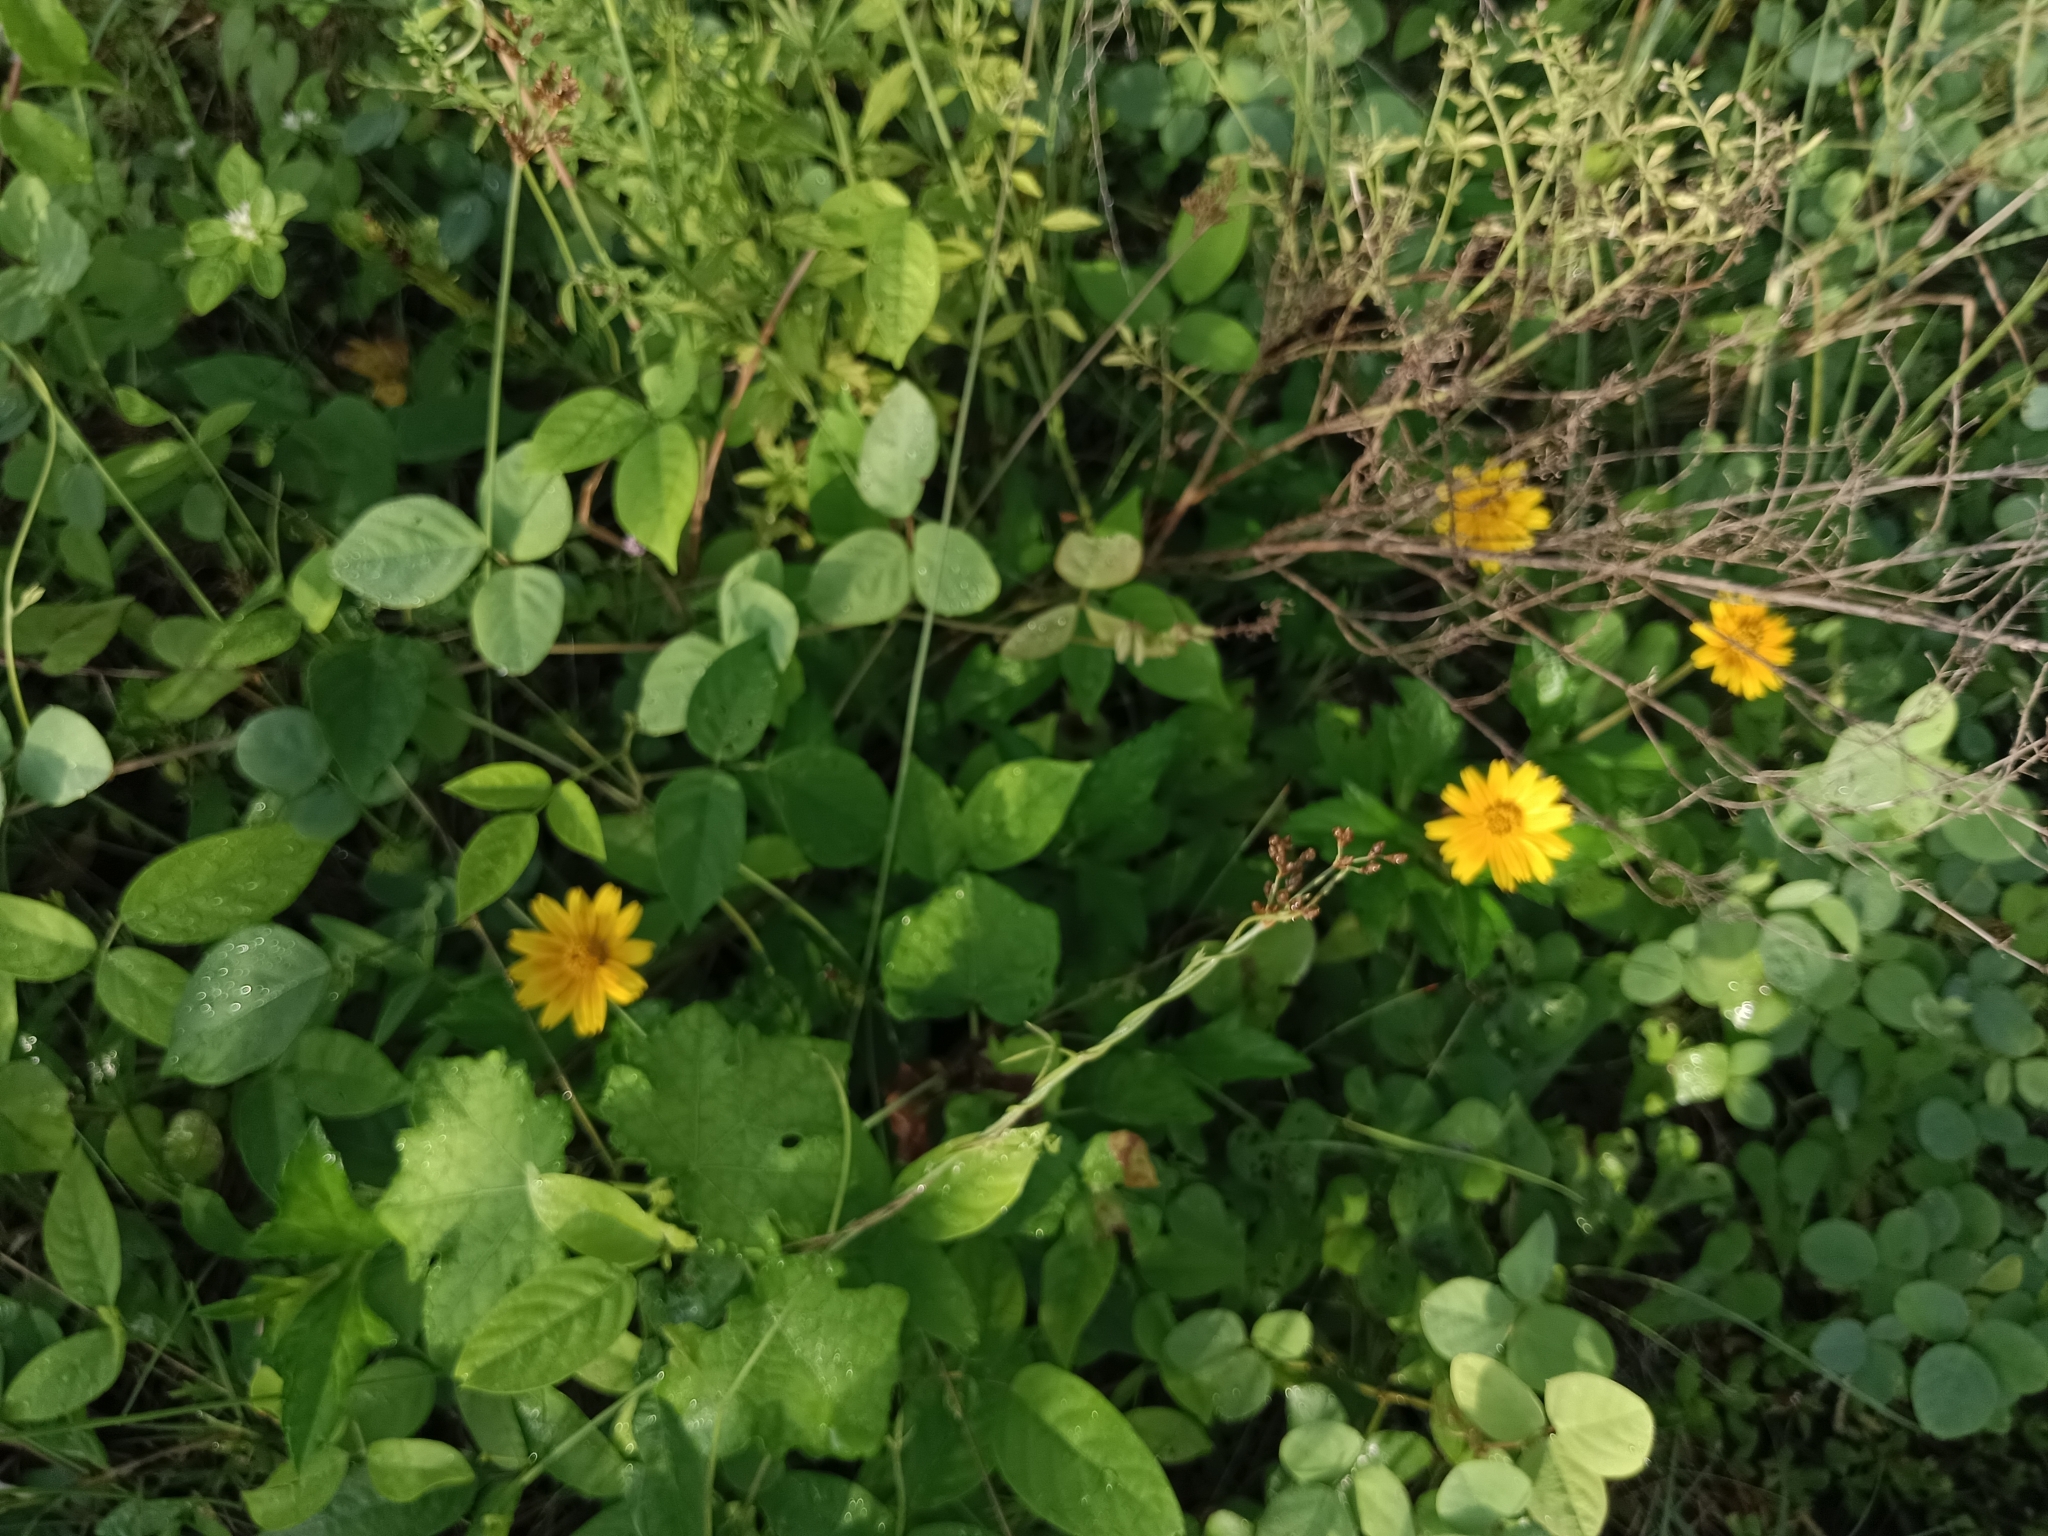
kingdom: Plantae
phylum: Tracheophyta
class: Magnoliopsida
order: Asterales
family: Asteraceae
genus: Sphagneticola
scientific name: Sphagneticola trilobata
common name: Bay biscayne creeping-oxeye
